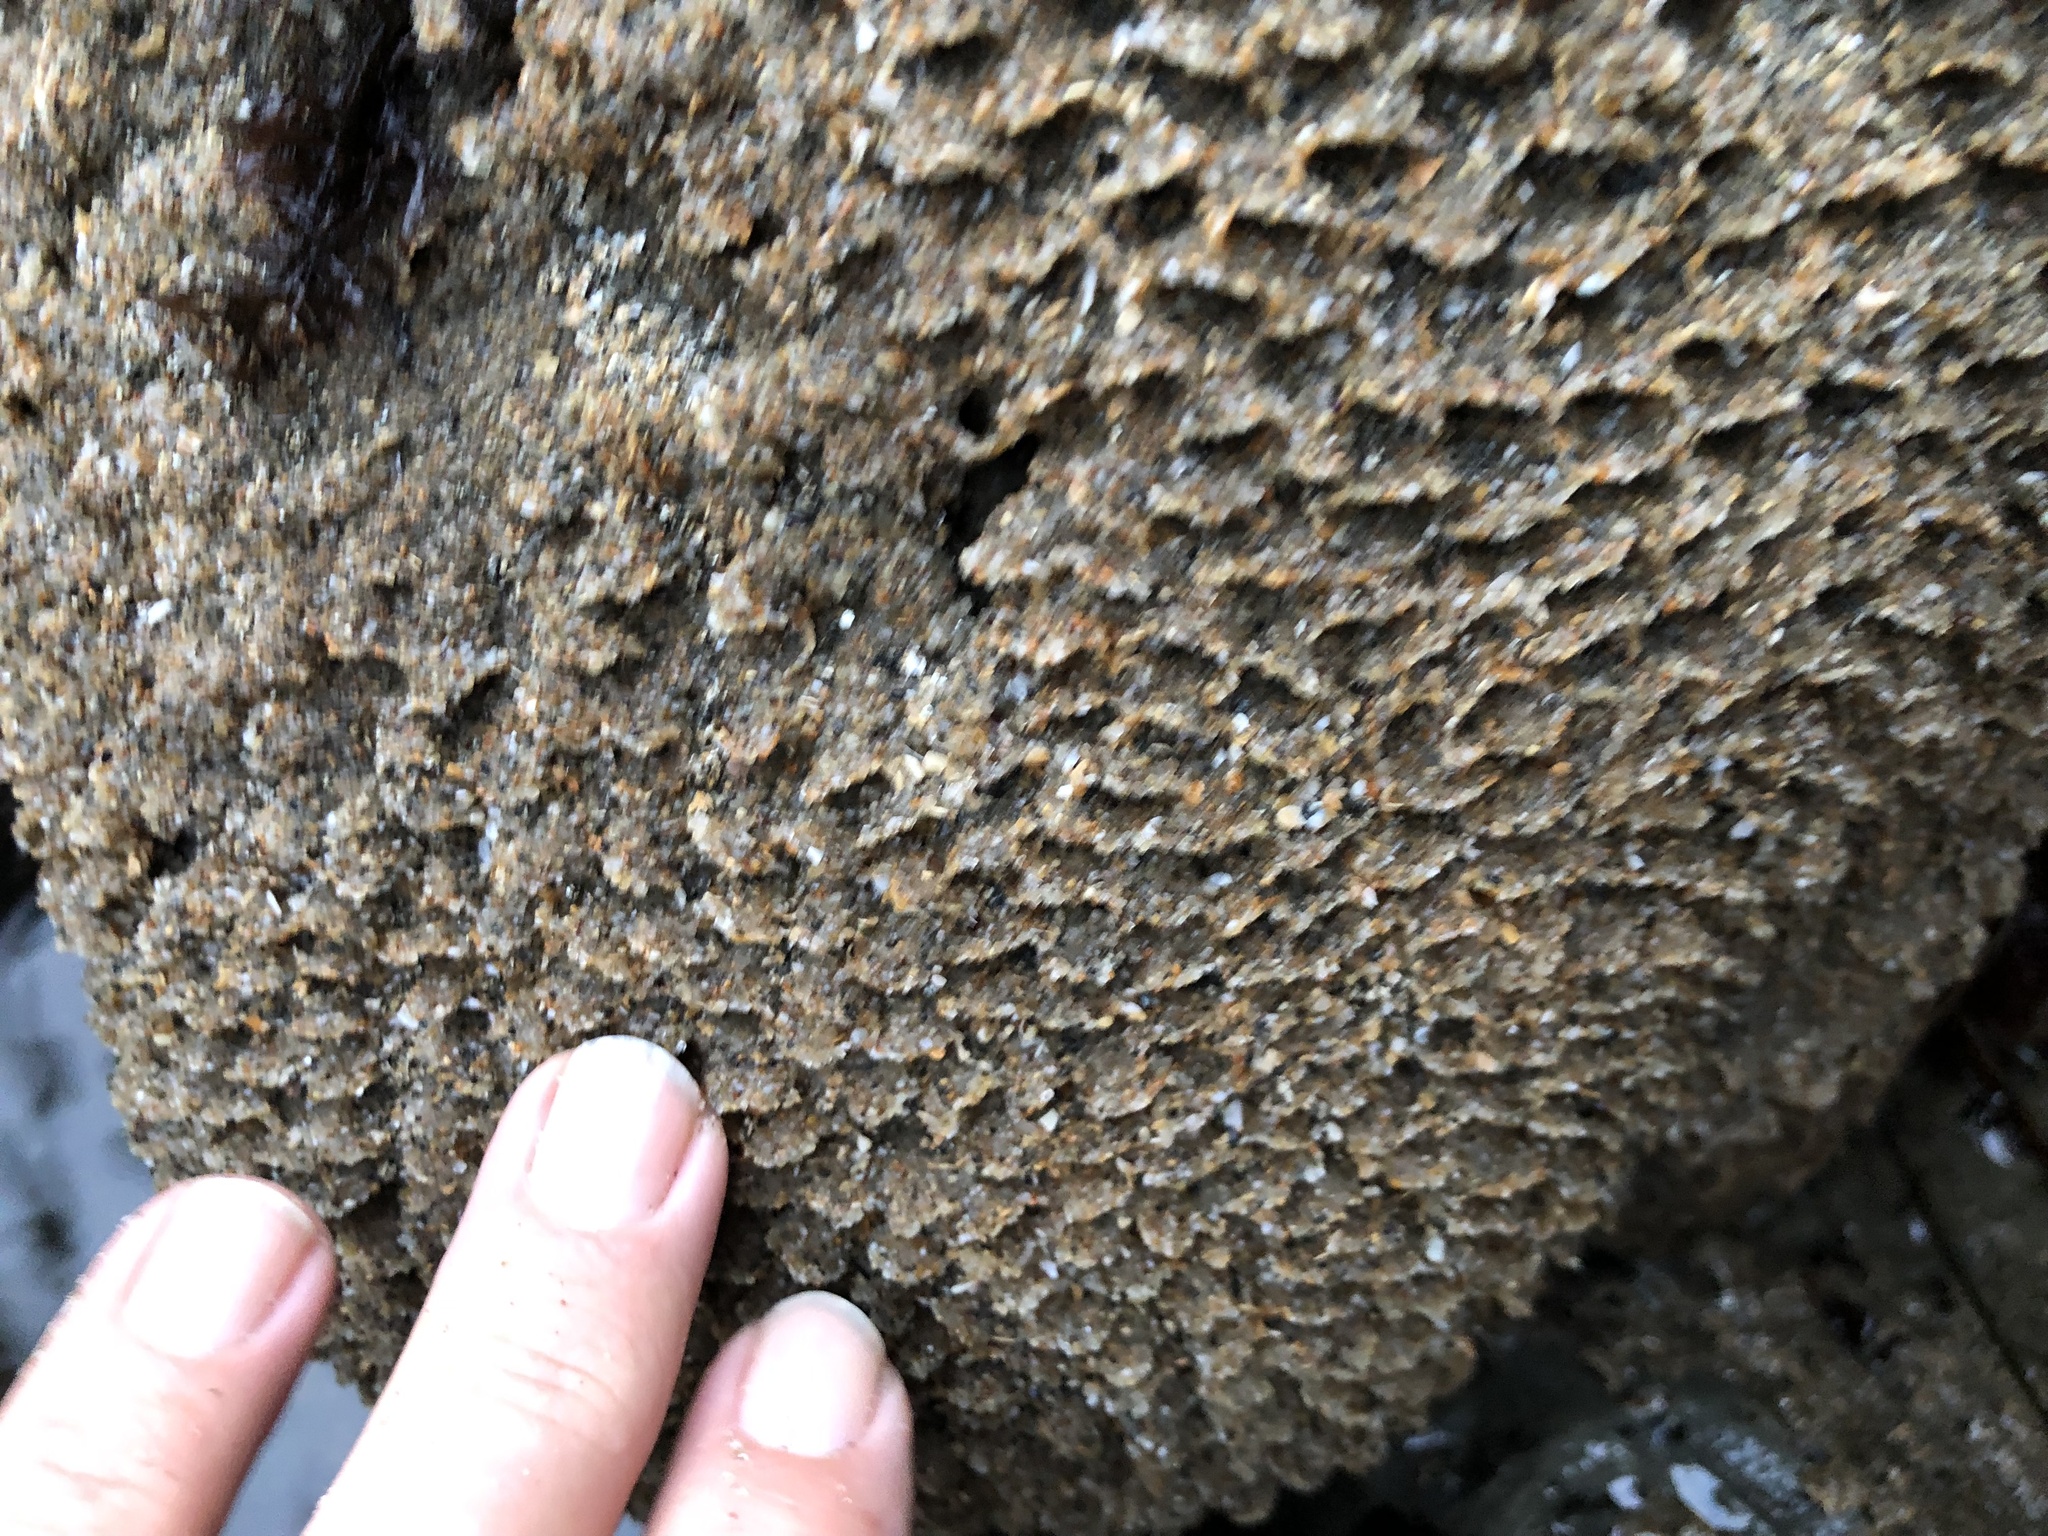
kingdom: Animalia
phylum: Annelida
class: Polychaeta
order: Sabellida
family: Sabellariidae
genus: Phragmatopoma
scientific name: Phragmatopoma californica
